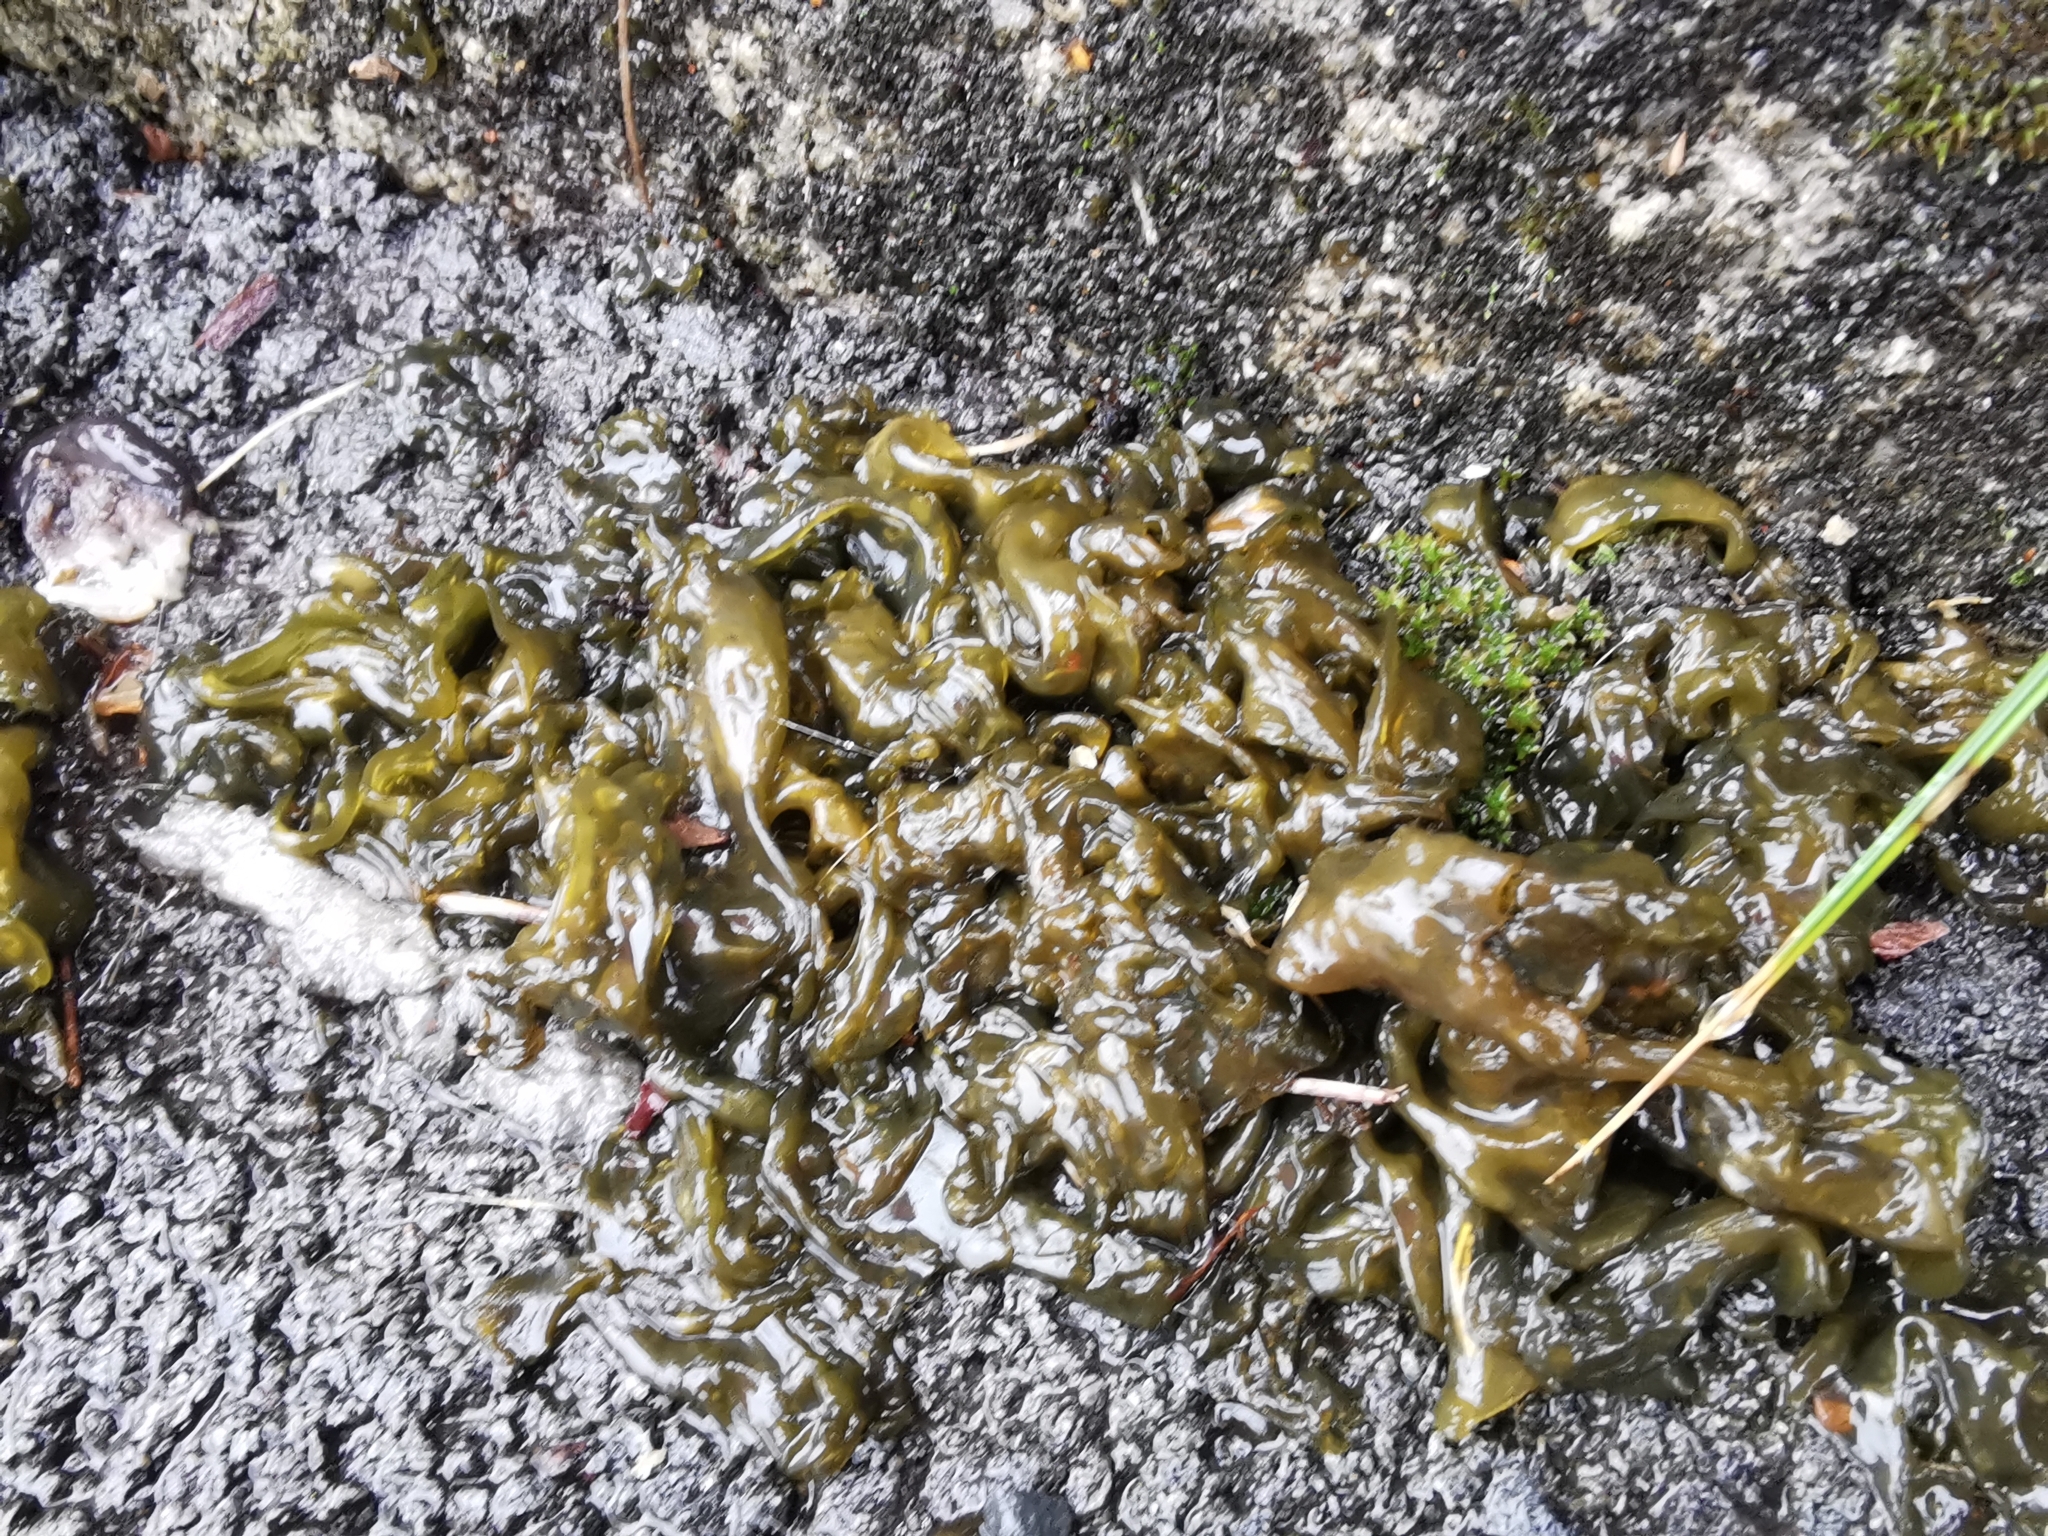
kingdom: Bacteria
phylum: Cyanobacteria
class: Cyanobacteriia
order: Cyanobacteriales
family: Nostocaceae
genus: Nostoc
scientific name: Nostoc commune
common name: Star jelly
